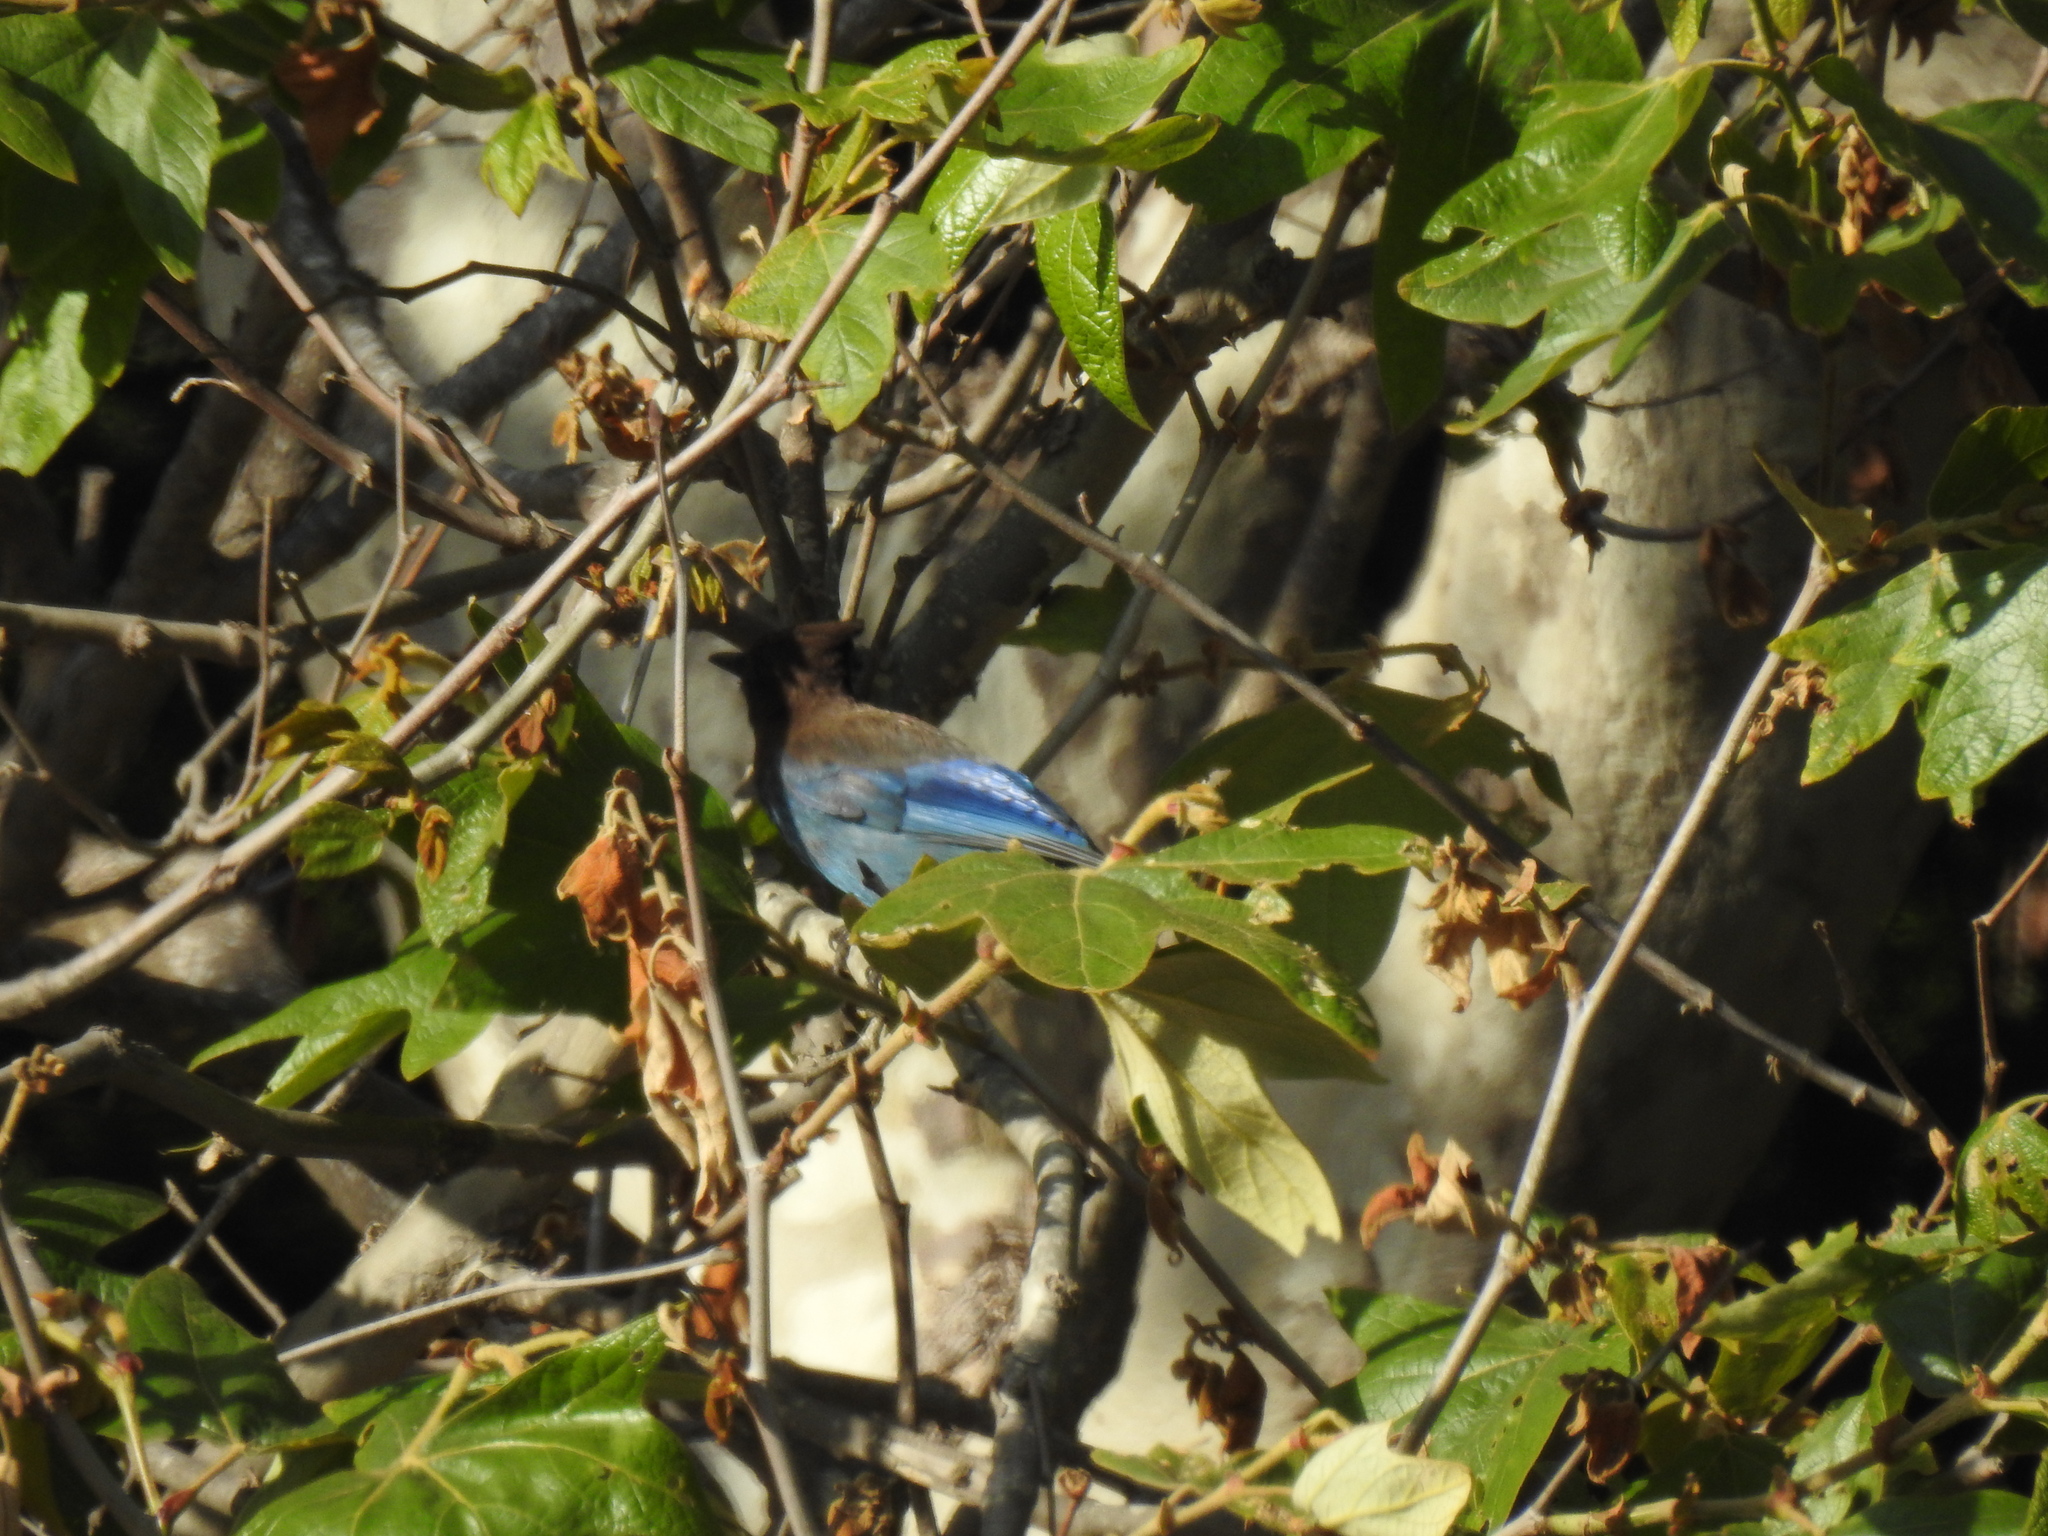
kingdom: Animalia
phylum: Chordata
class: Aves
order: Passeriformes
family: Corvidae
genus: Cyanocitta
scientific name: Cyanocitta stelleri
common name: Steller's jay
